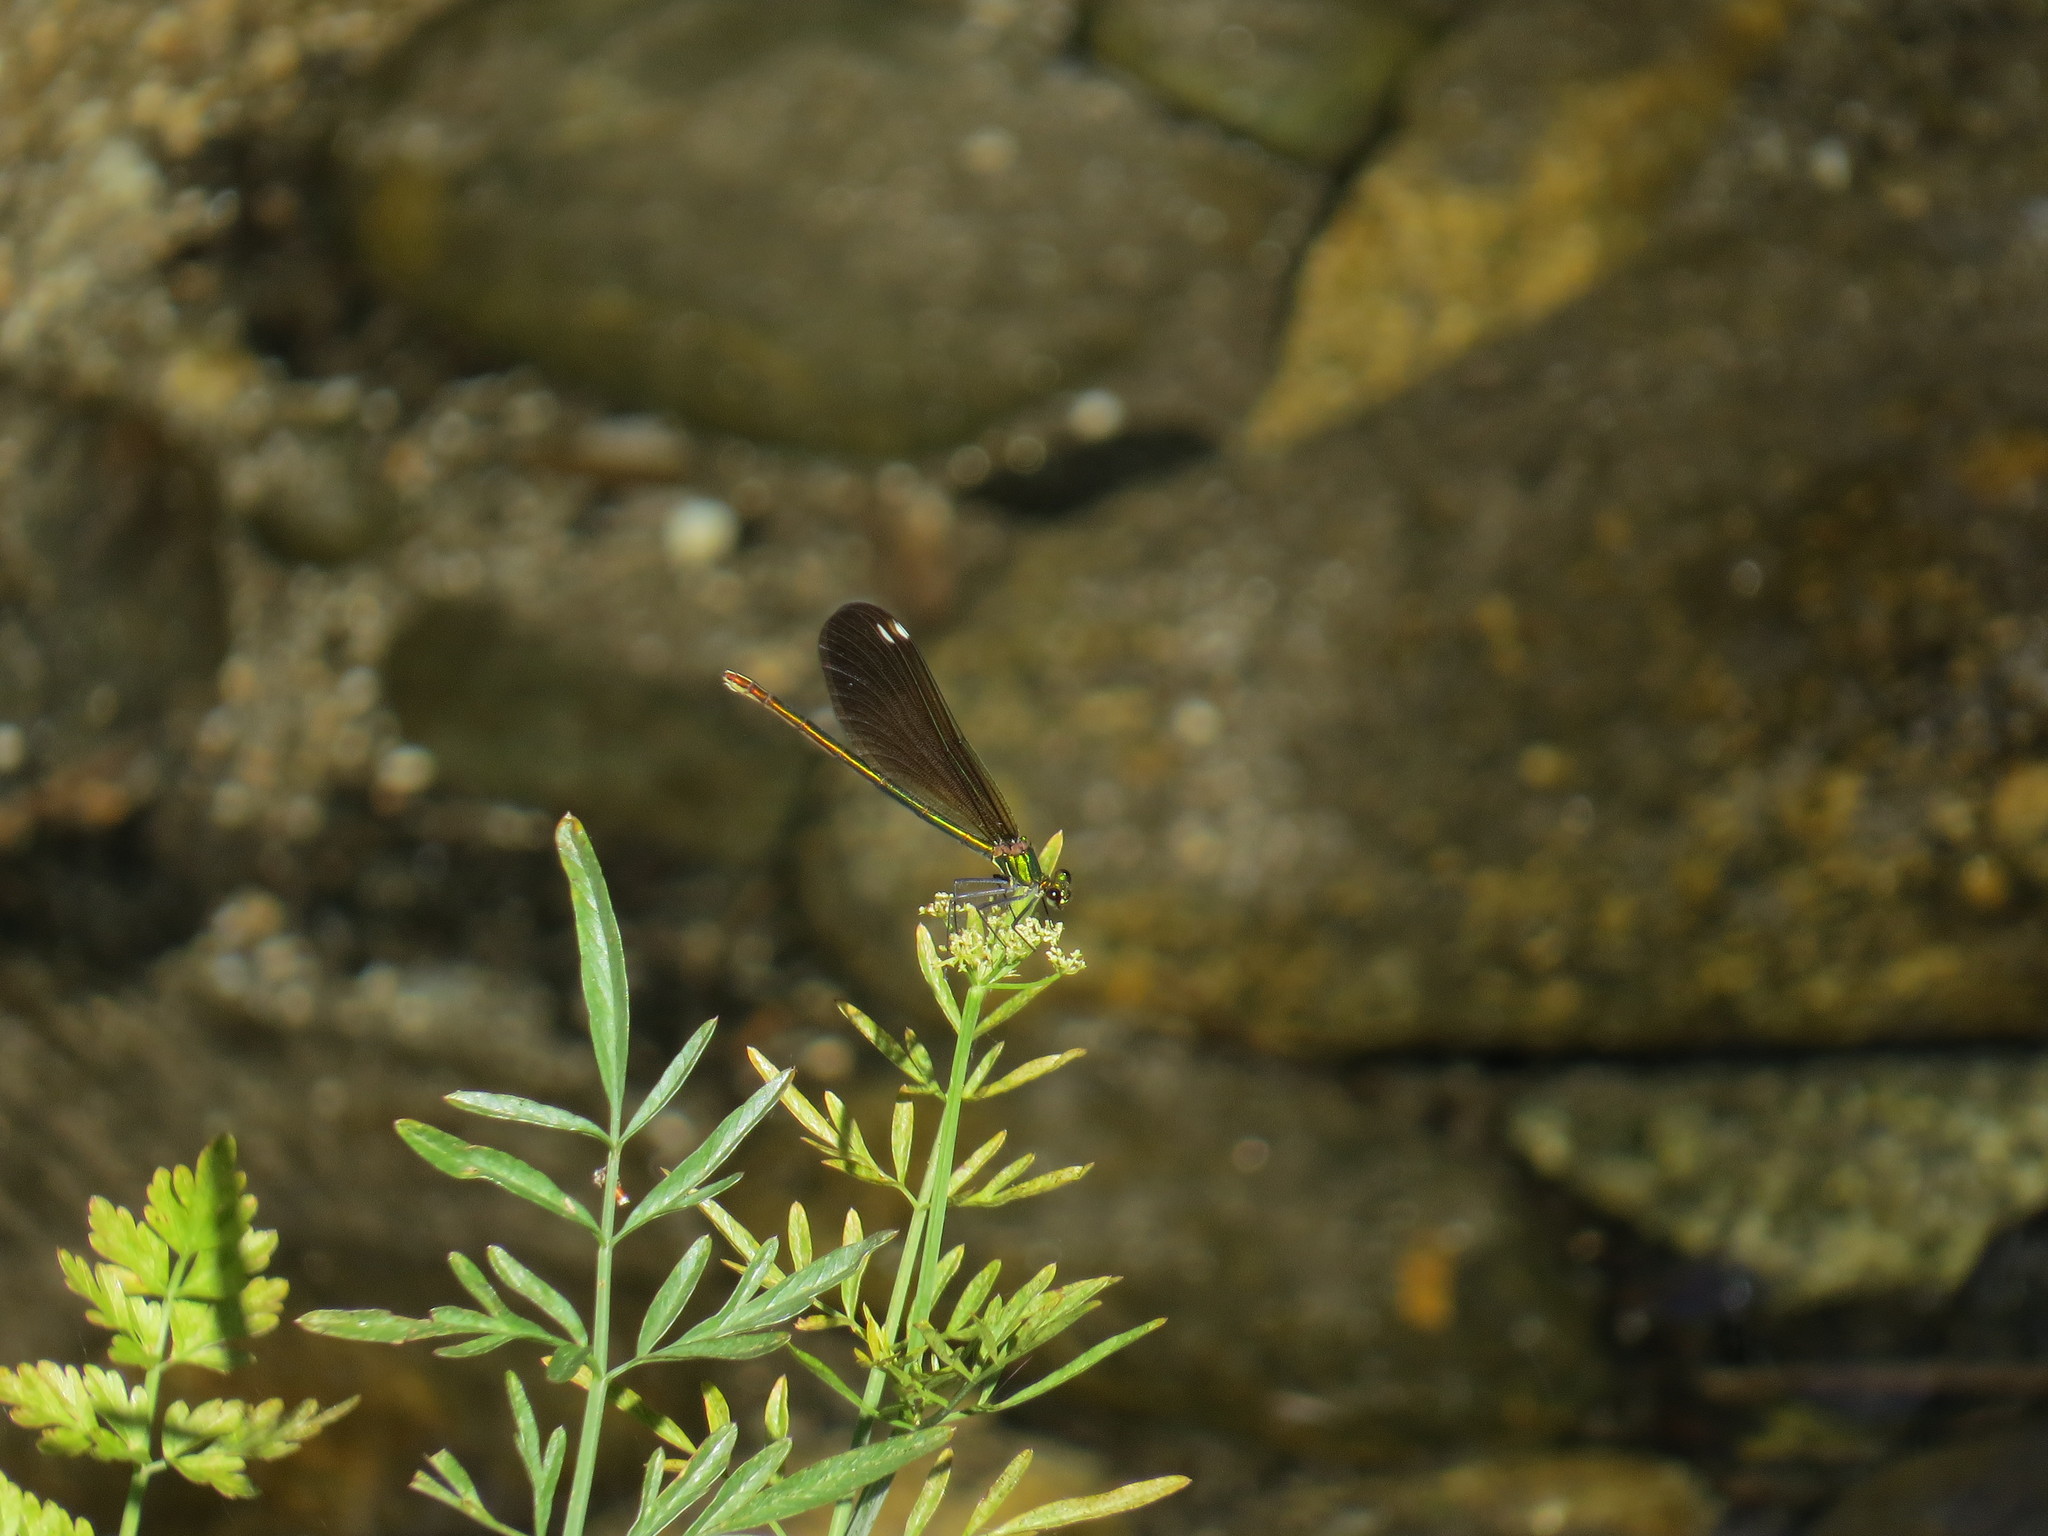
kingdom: Animalia
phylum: Arthropoda
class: Insecta
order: Odonata
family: Calopterygidae
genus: Calopteryx
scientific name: Calopteryx virgo
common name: Beautiful demoiselle
